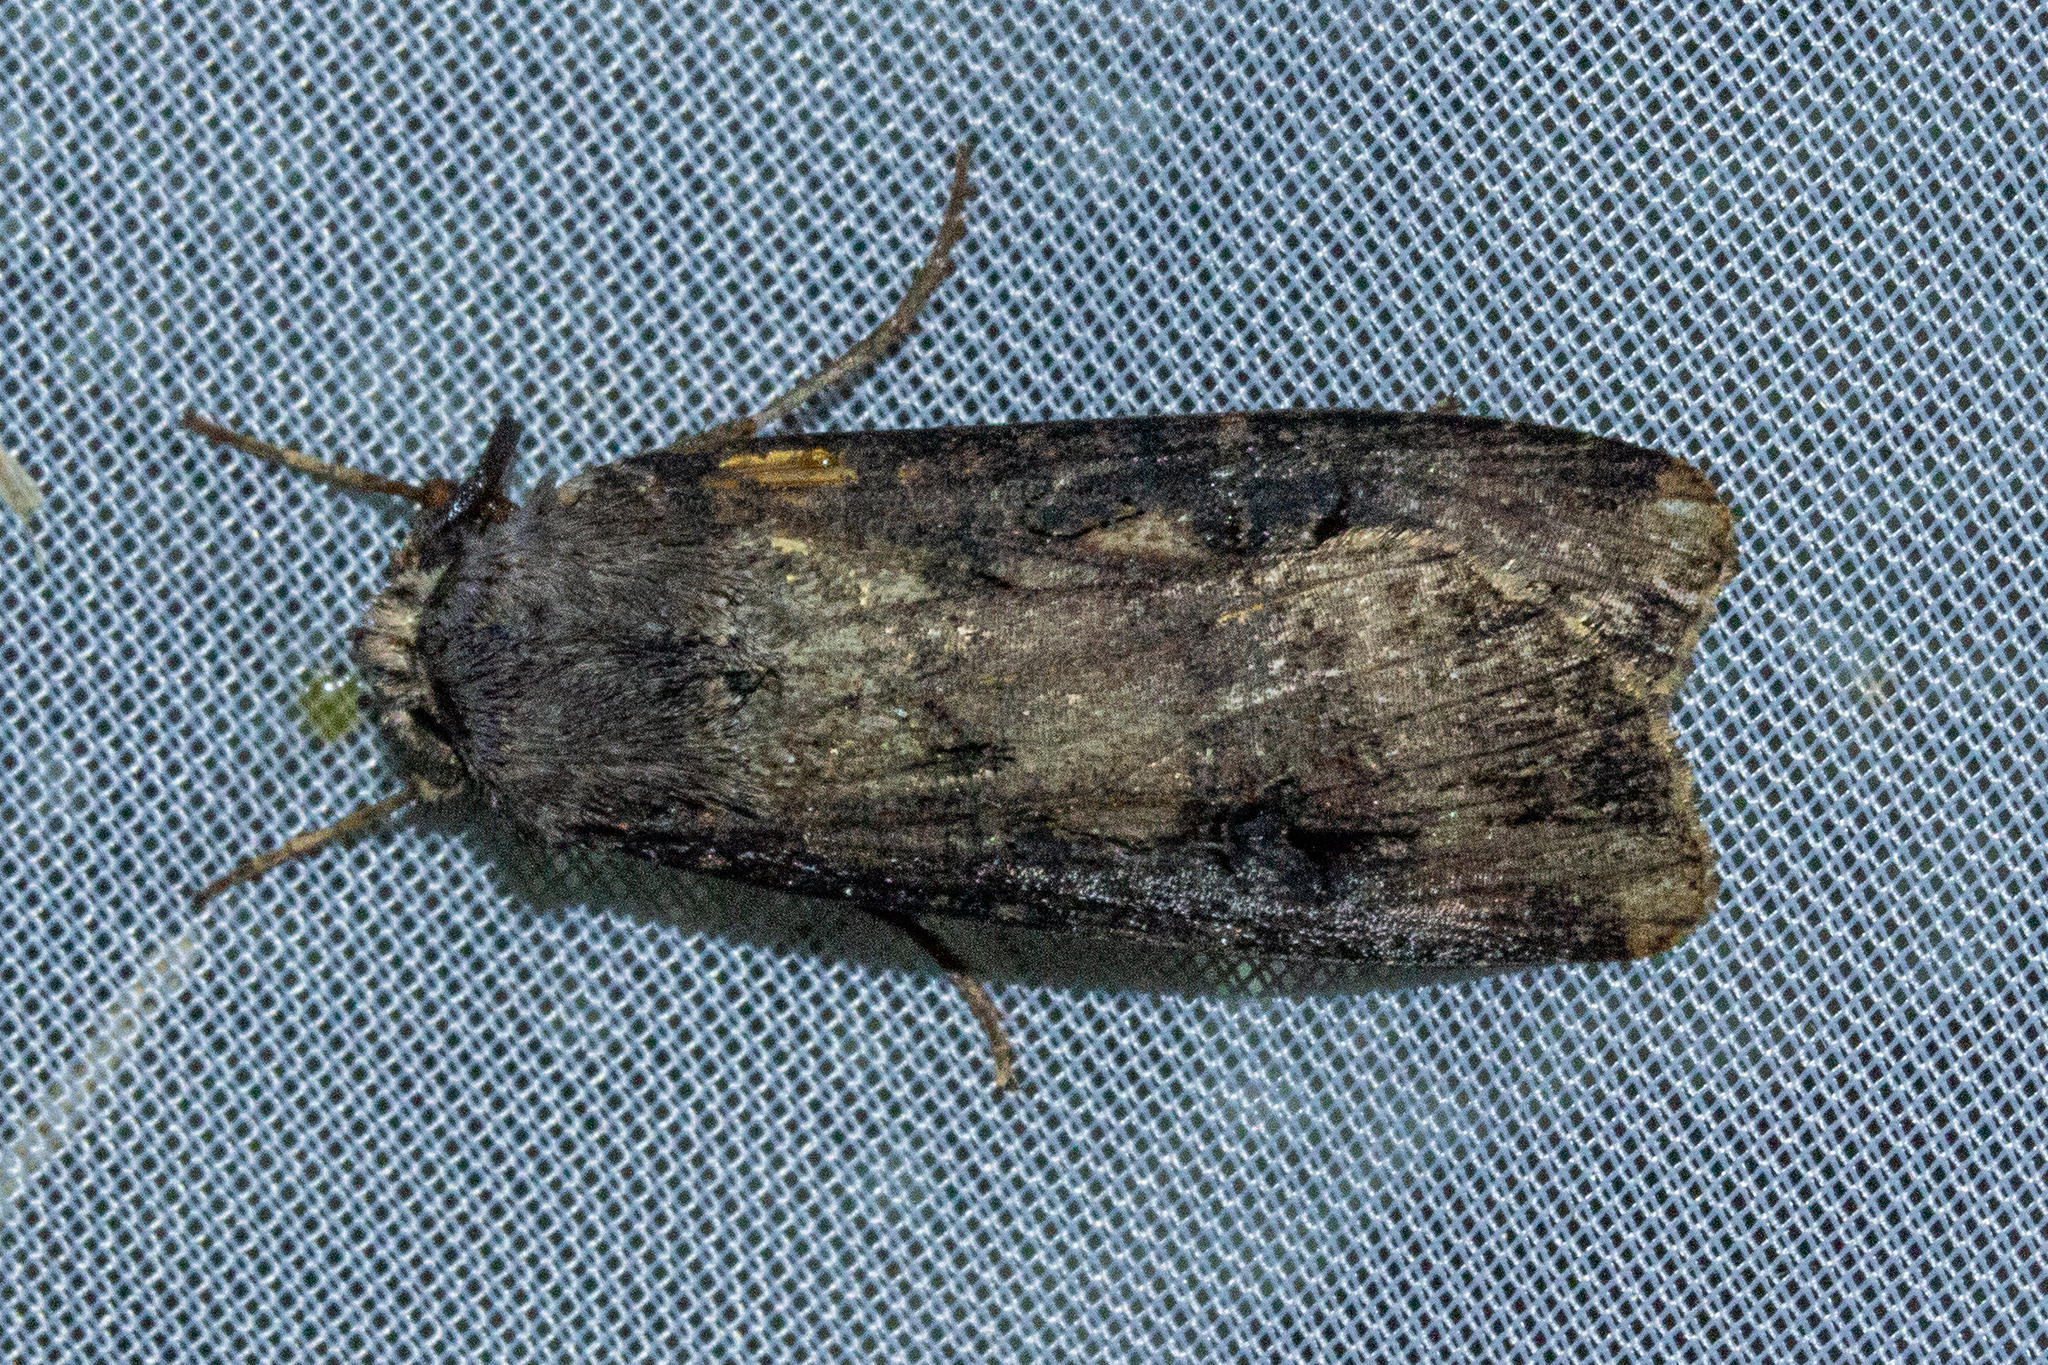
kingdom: Animalia
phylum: Arthropoda
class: Insecta
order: Lepidoptera
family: Noctuidae
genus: Agrotis
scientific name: Agrotis ipsilon
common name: Dark sword-grass
